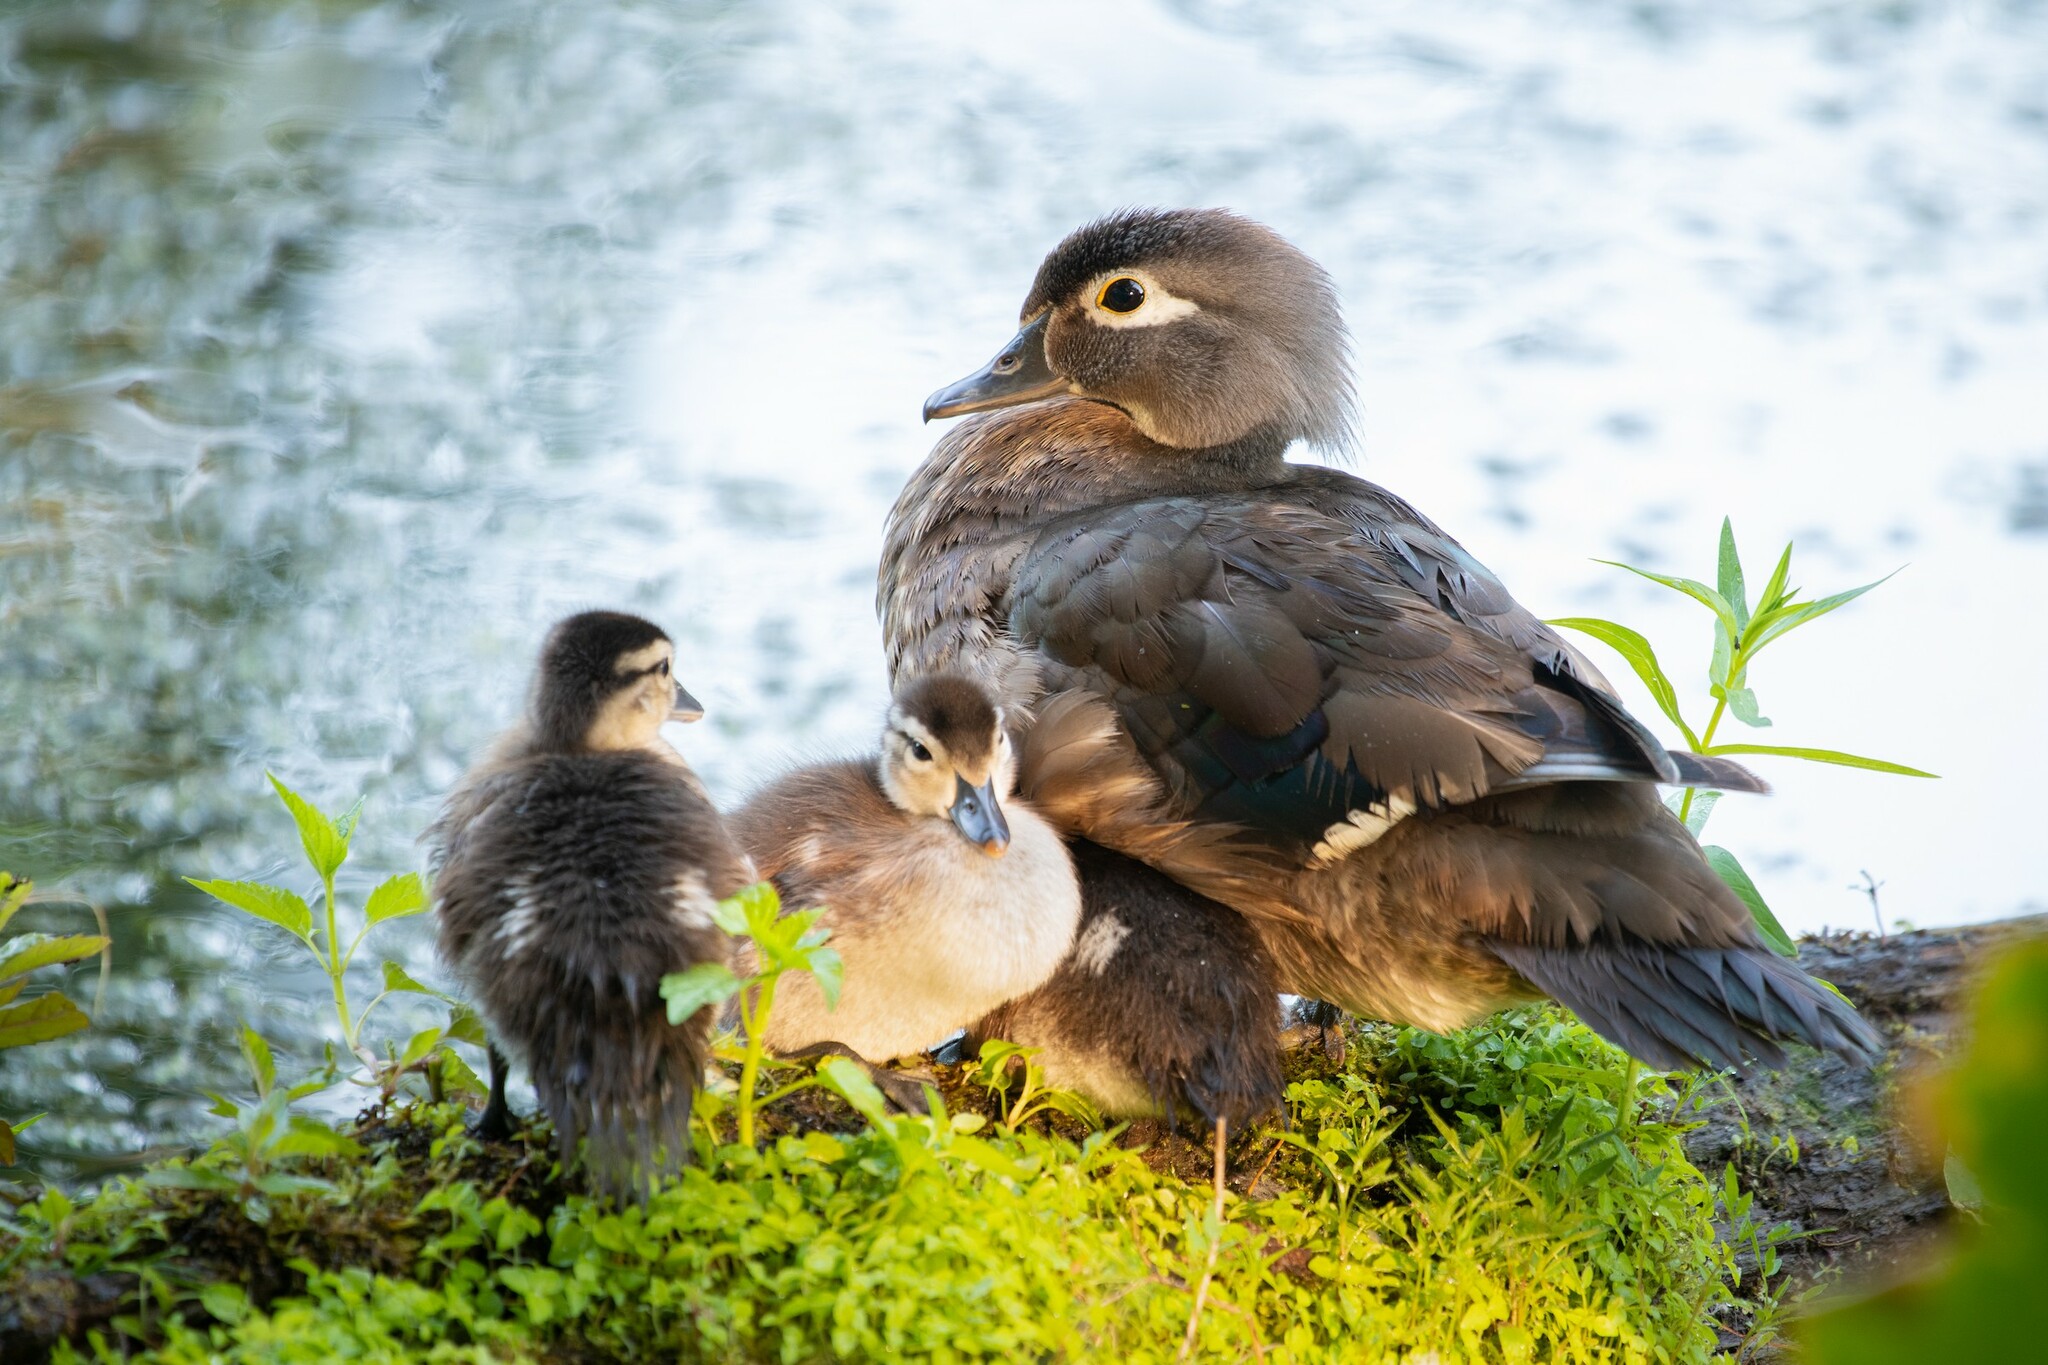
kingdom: Animalia
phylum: Chordata
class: Aves
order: Anseriformes
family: Anatidae
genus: Aix
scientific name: Aix sponsa
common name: Wood duck
